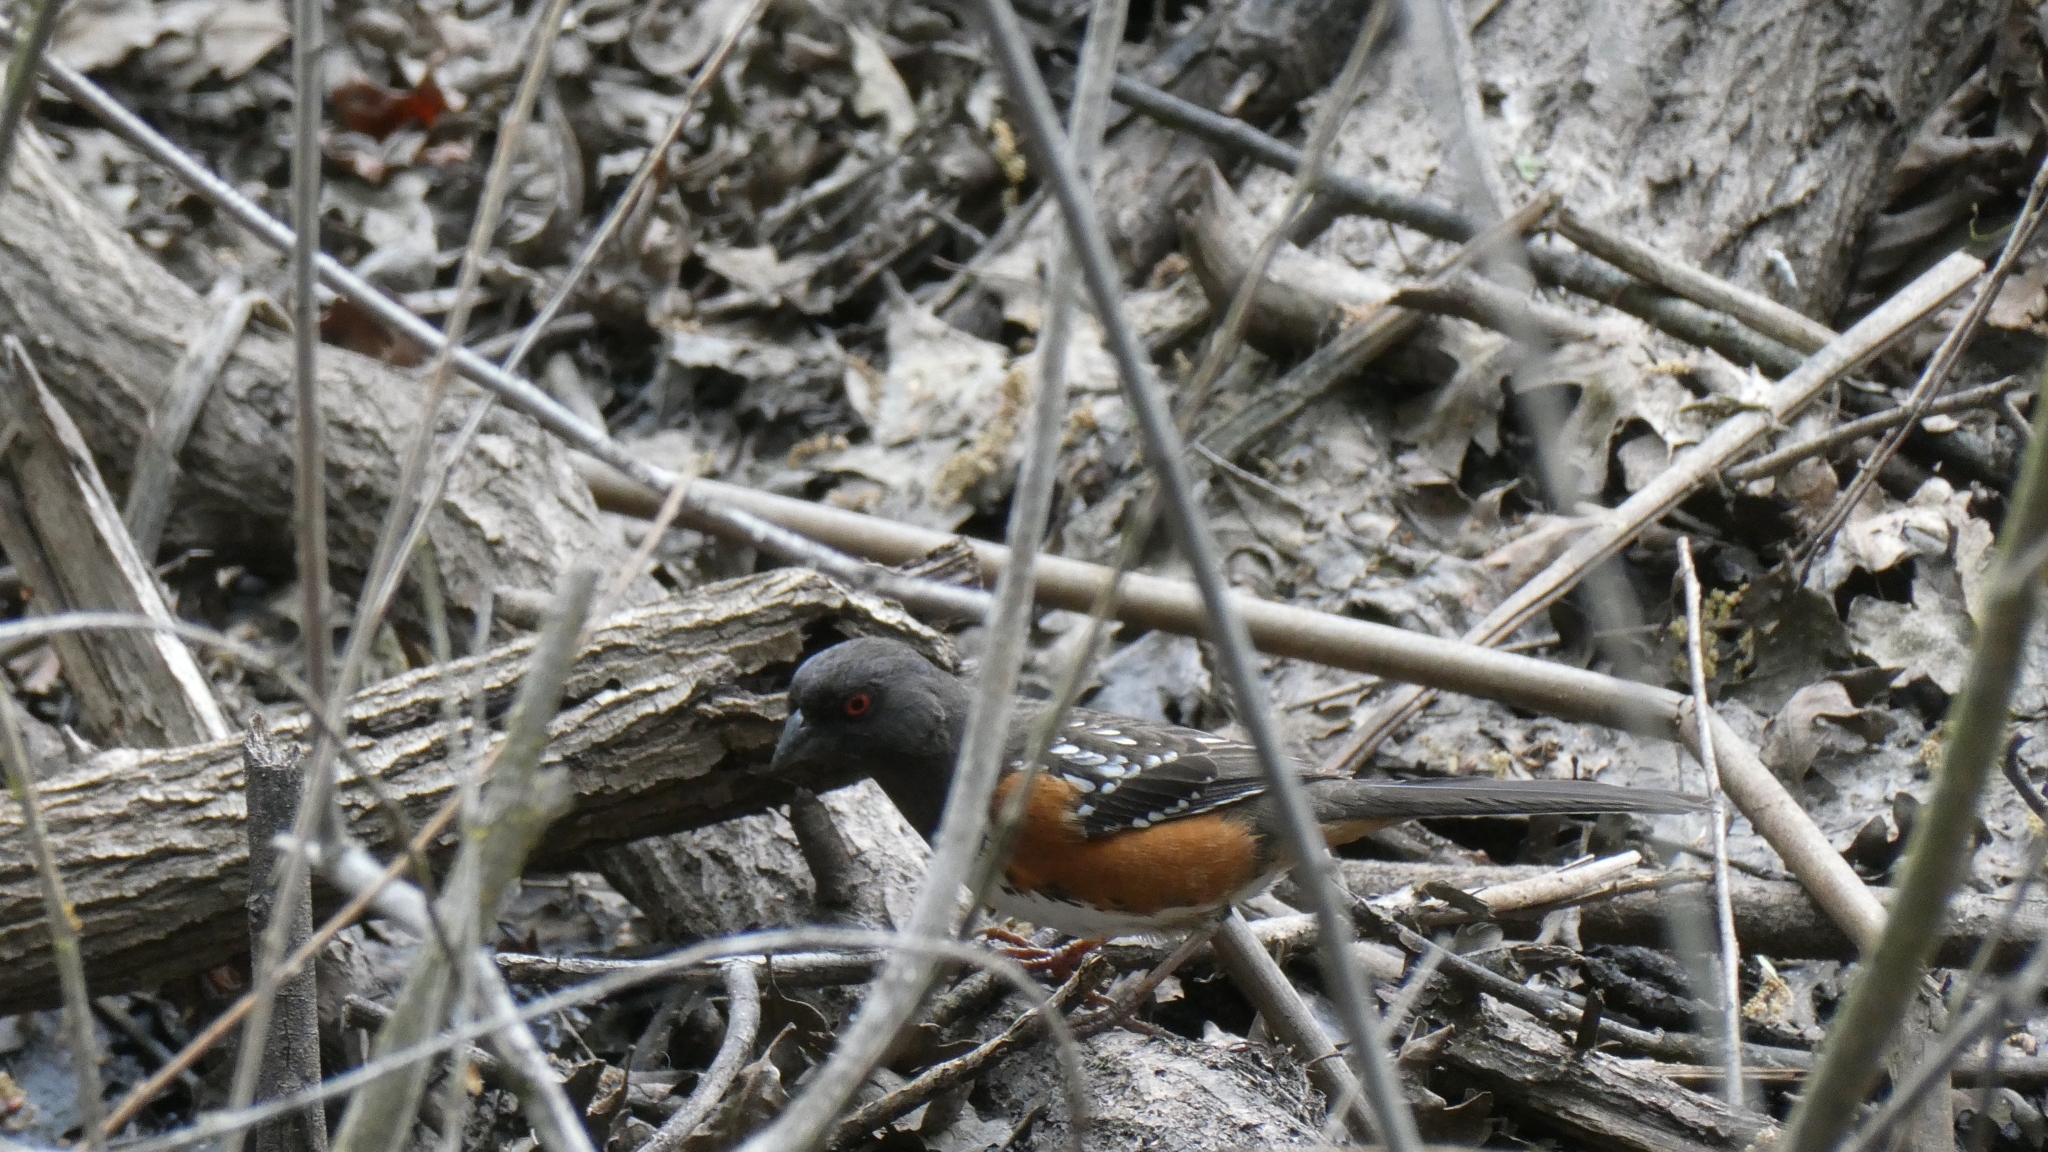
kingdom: Animalia
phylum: Chordata
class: Aves
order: Passeriformes
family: Passerellidae
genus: Pipilo
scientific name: Pipilo maculatus
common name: Spotted towhee
